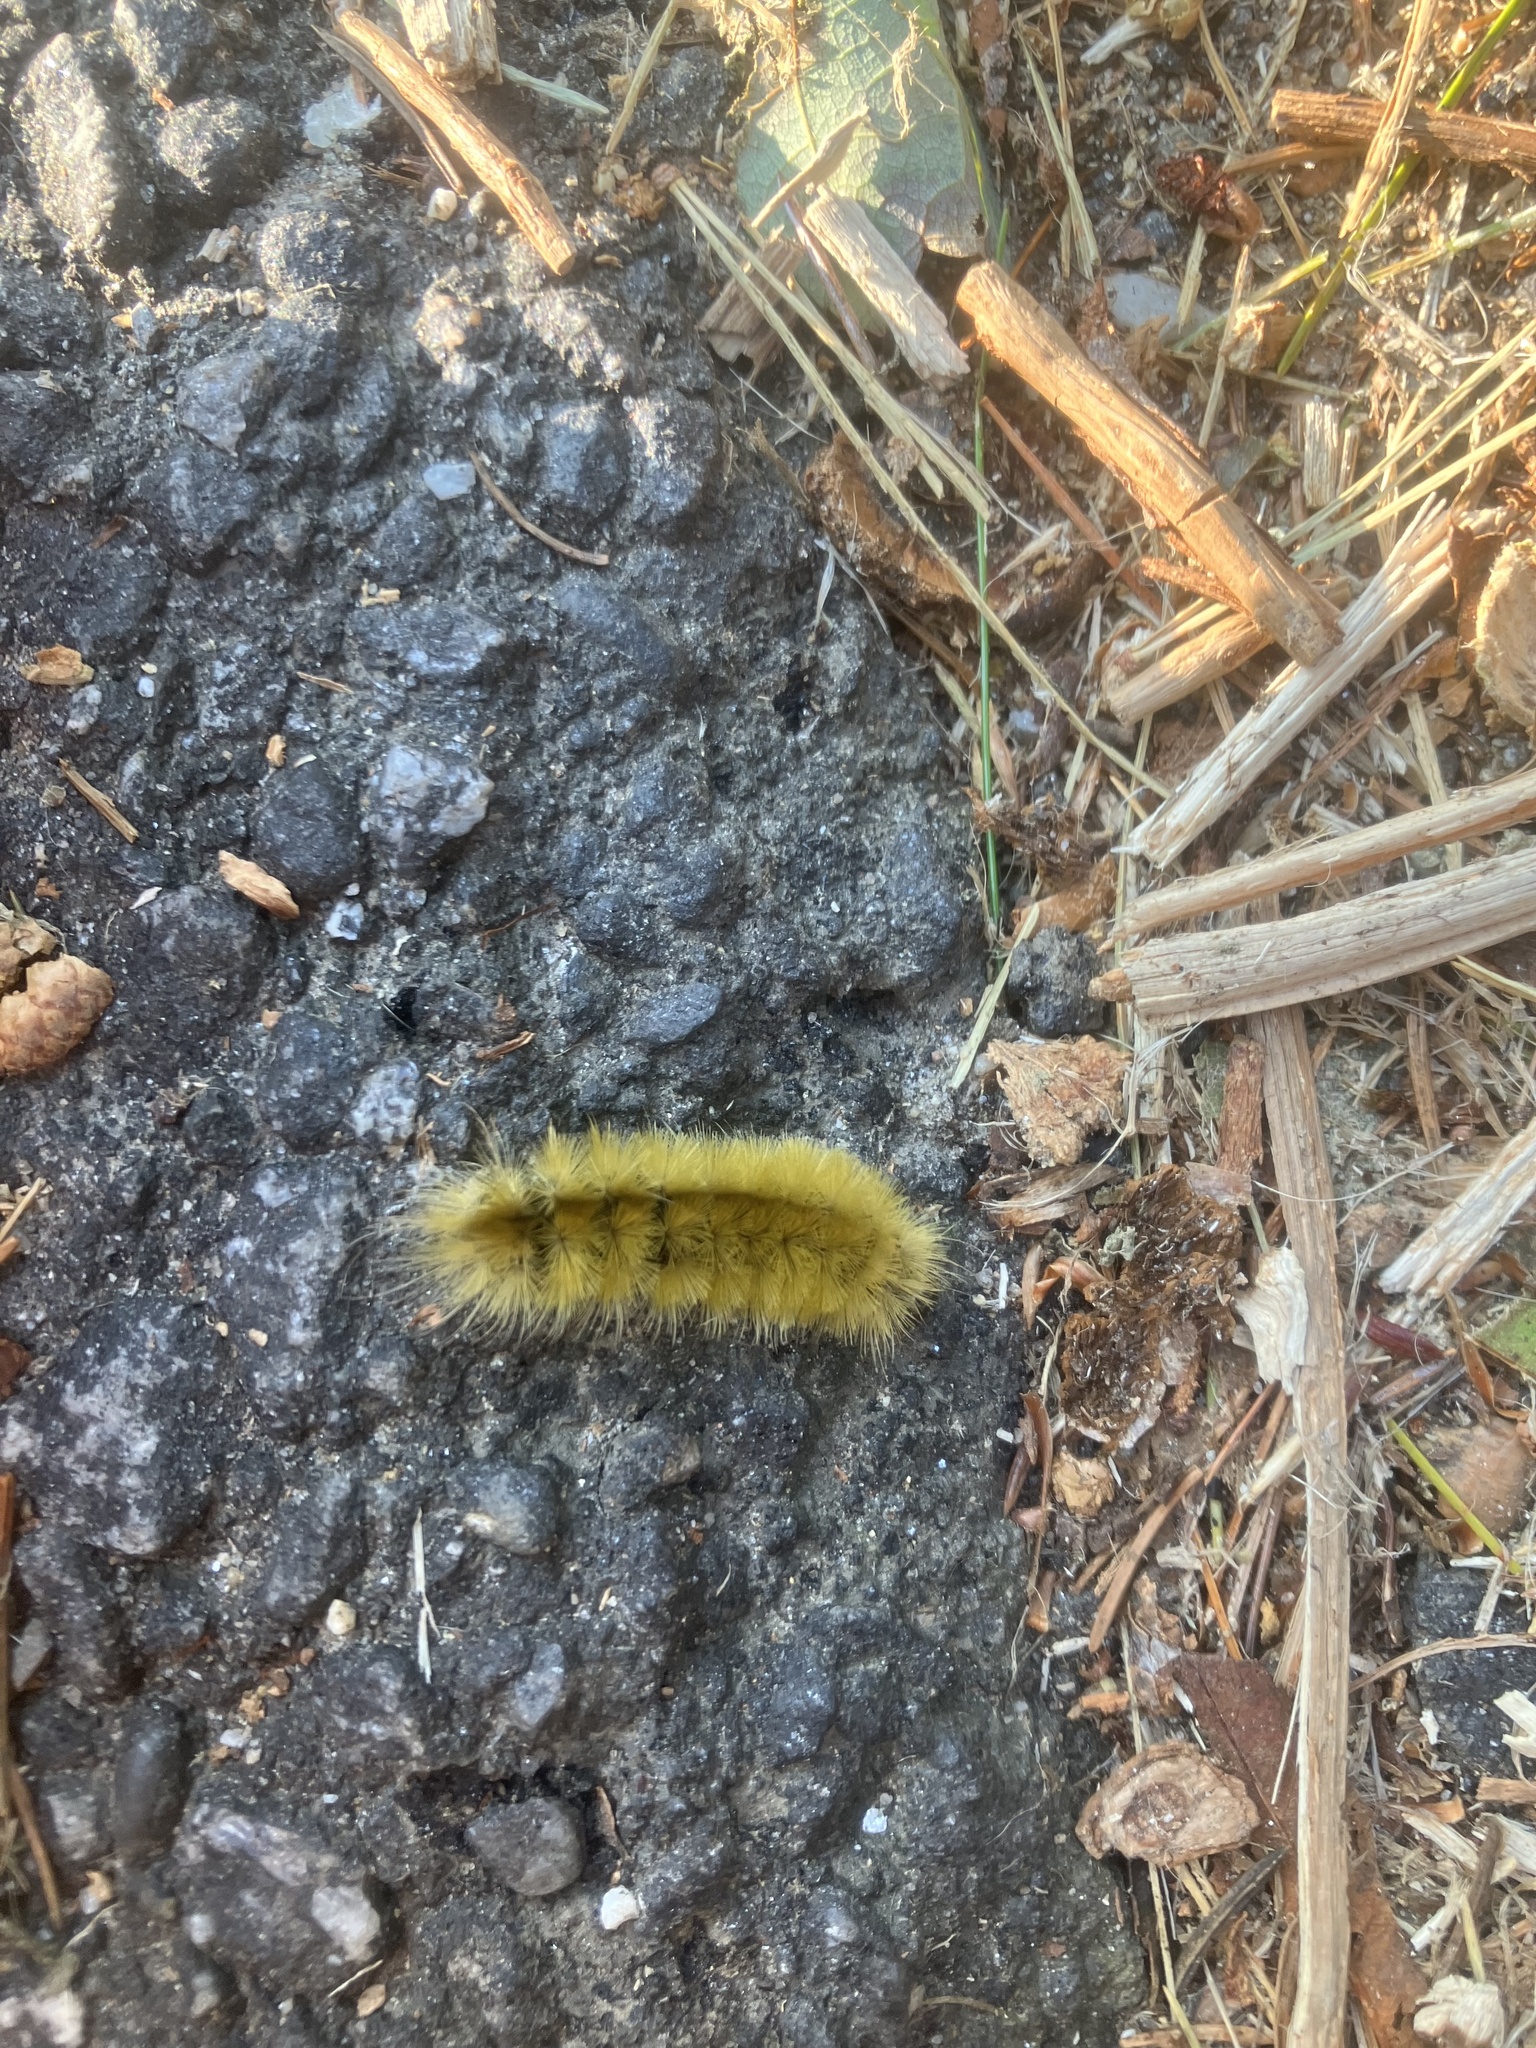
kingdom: Animalia
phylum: Arthropoda
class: Insecta
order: Lepidoptera
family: Erebidae
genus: Halysidota
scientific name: Halysidota tessellaris
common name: Banded tussock moth
